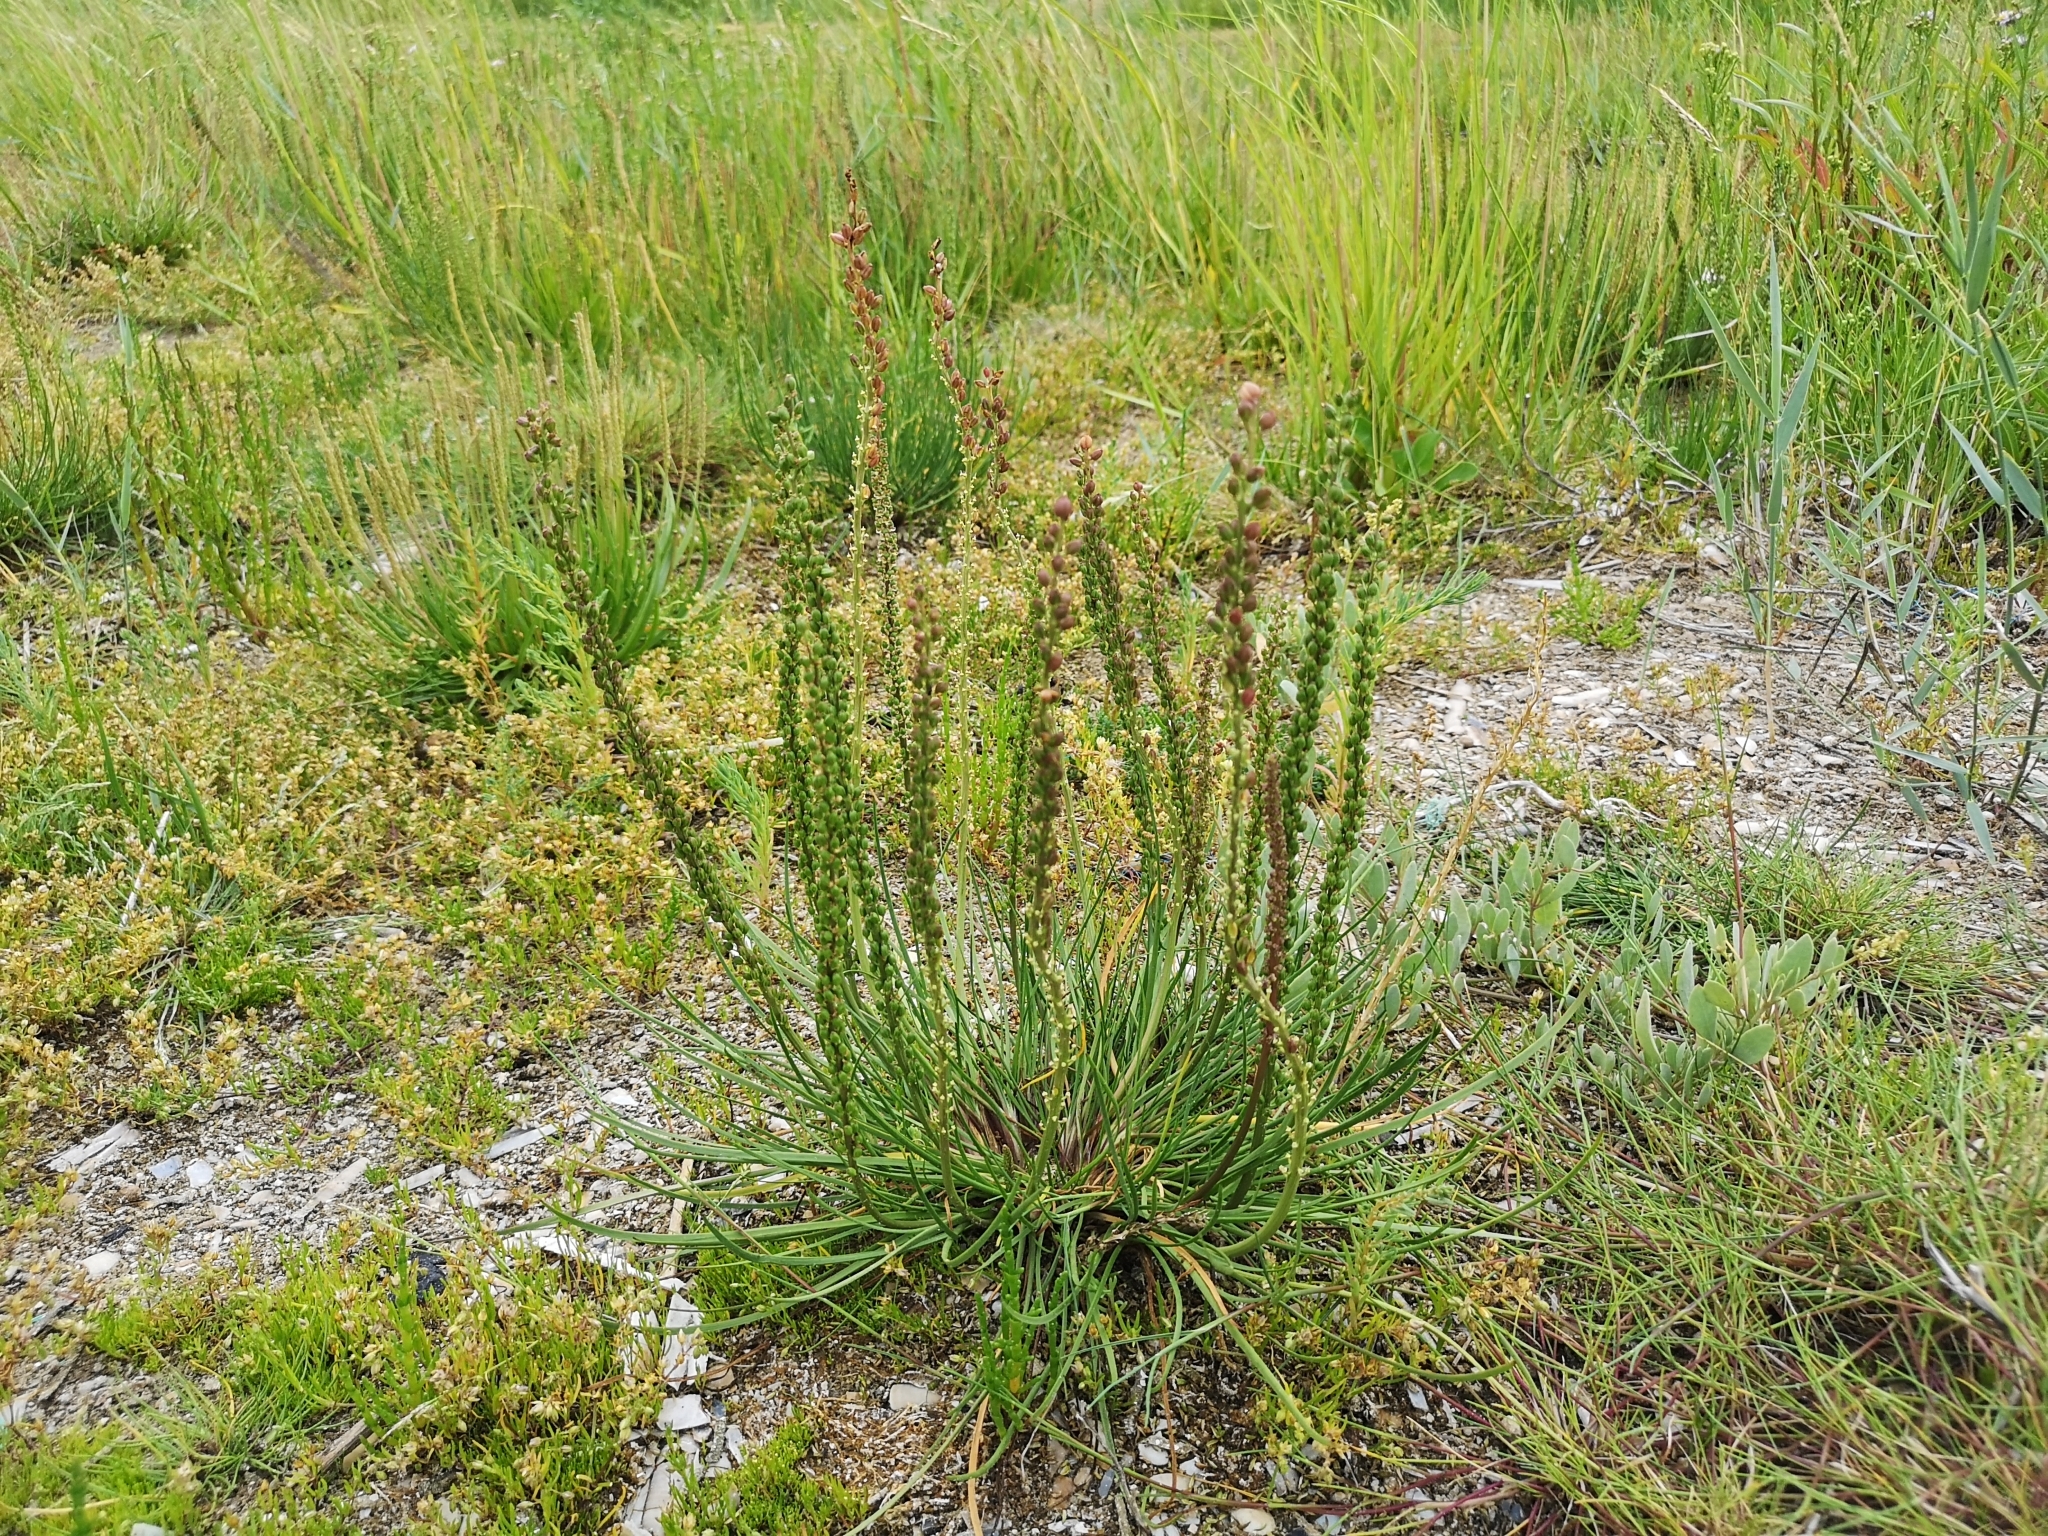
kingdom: Plantae
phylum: Tracheophyta
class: Liliopsida
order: Alismatales
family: Juncaginaceae
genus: Triglochin
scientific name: Triglochin maritima
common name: Sea arrowgrass
